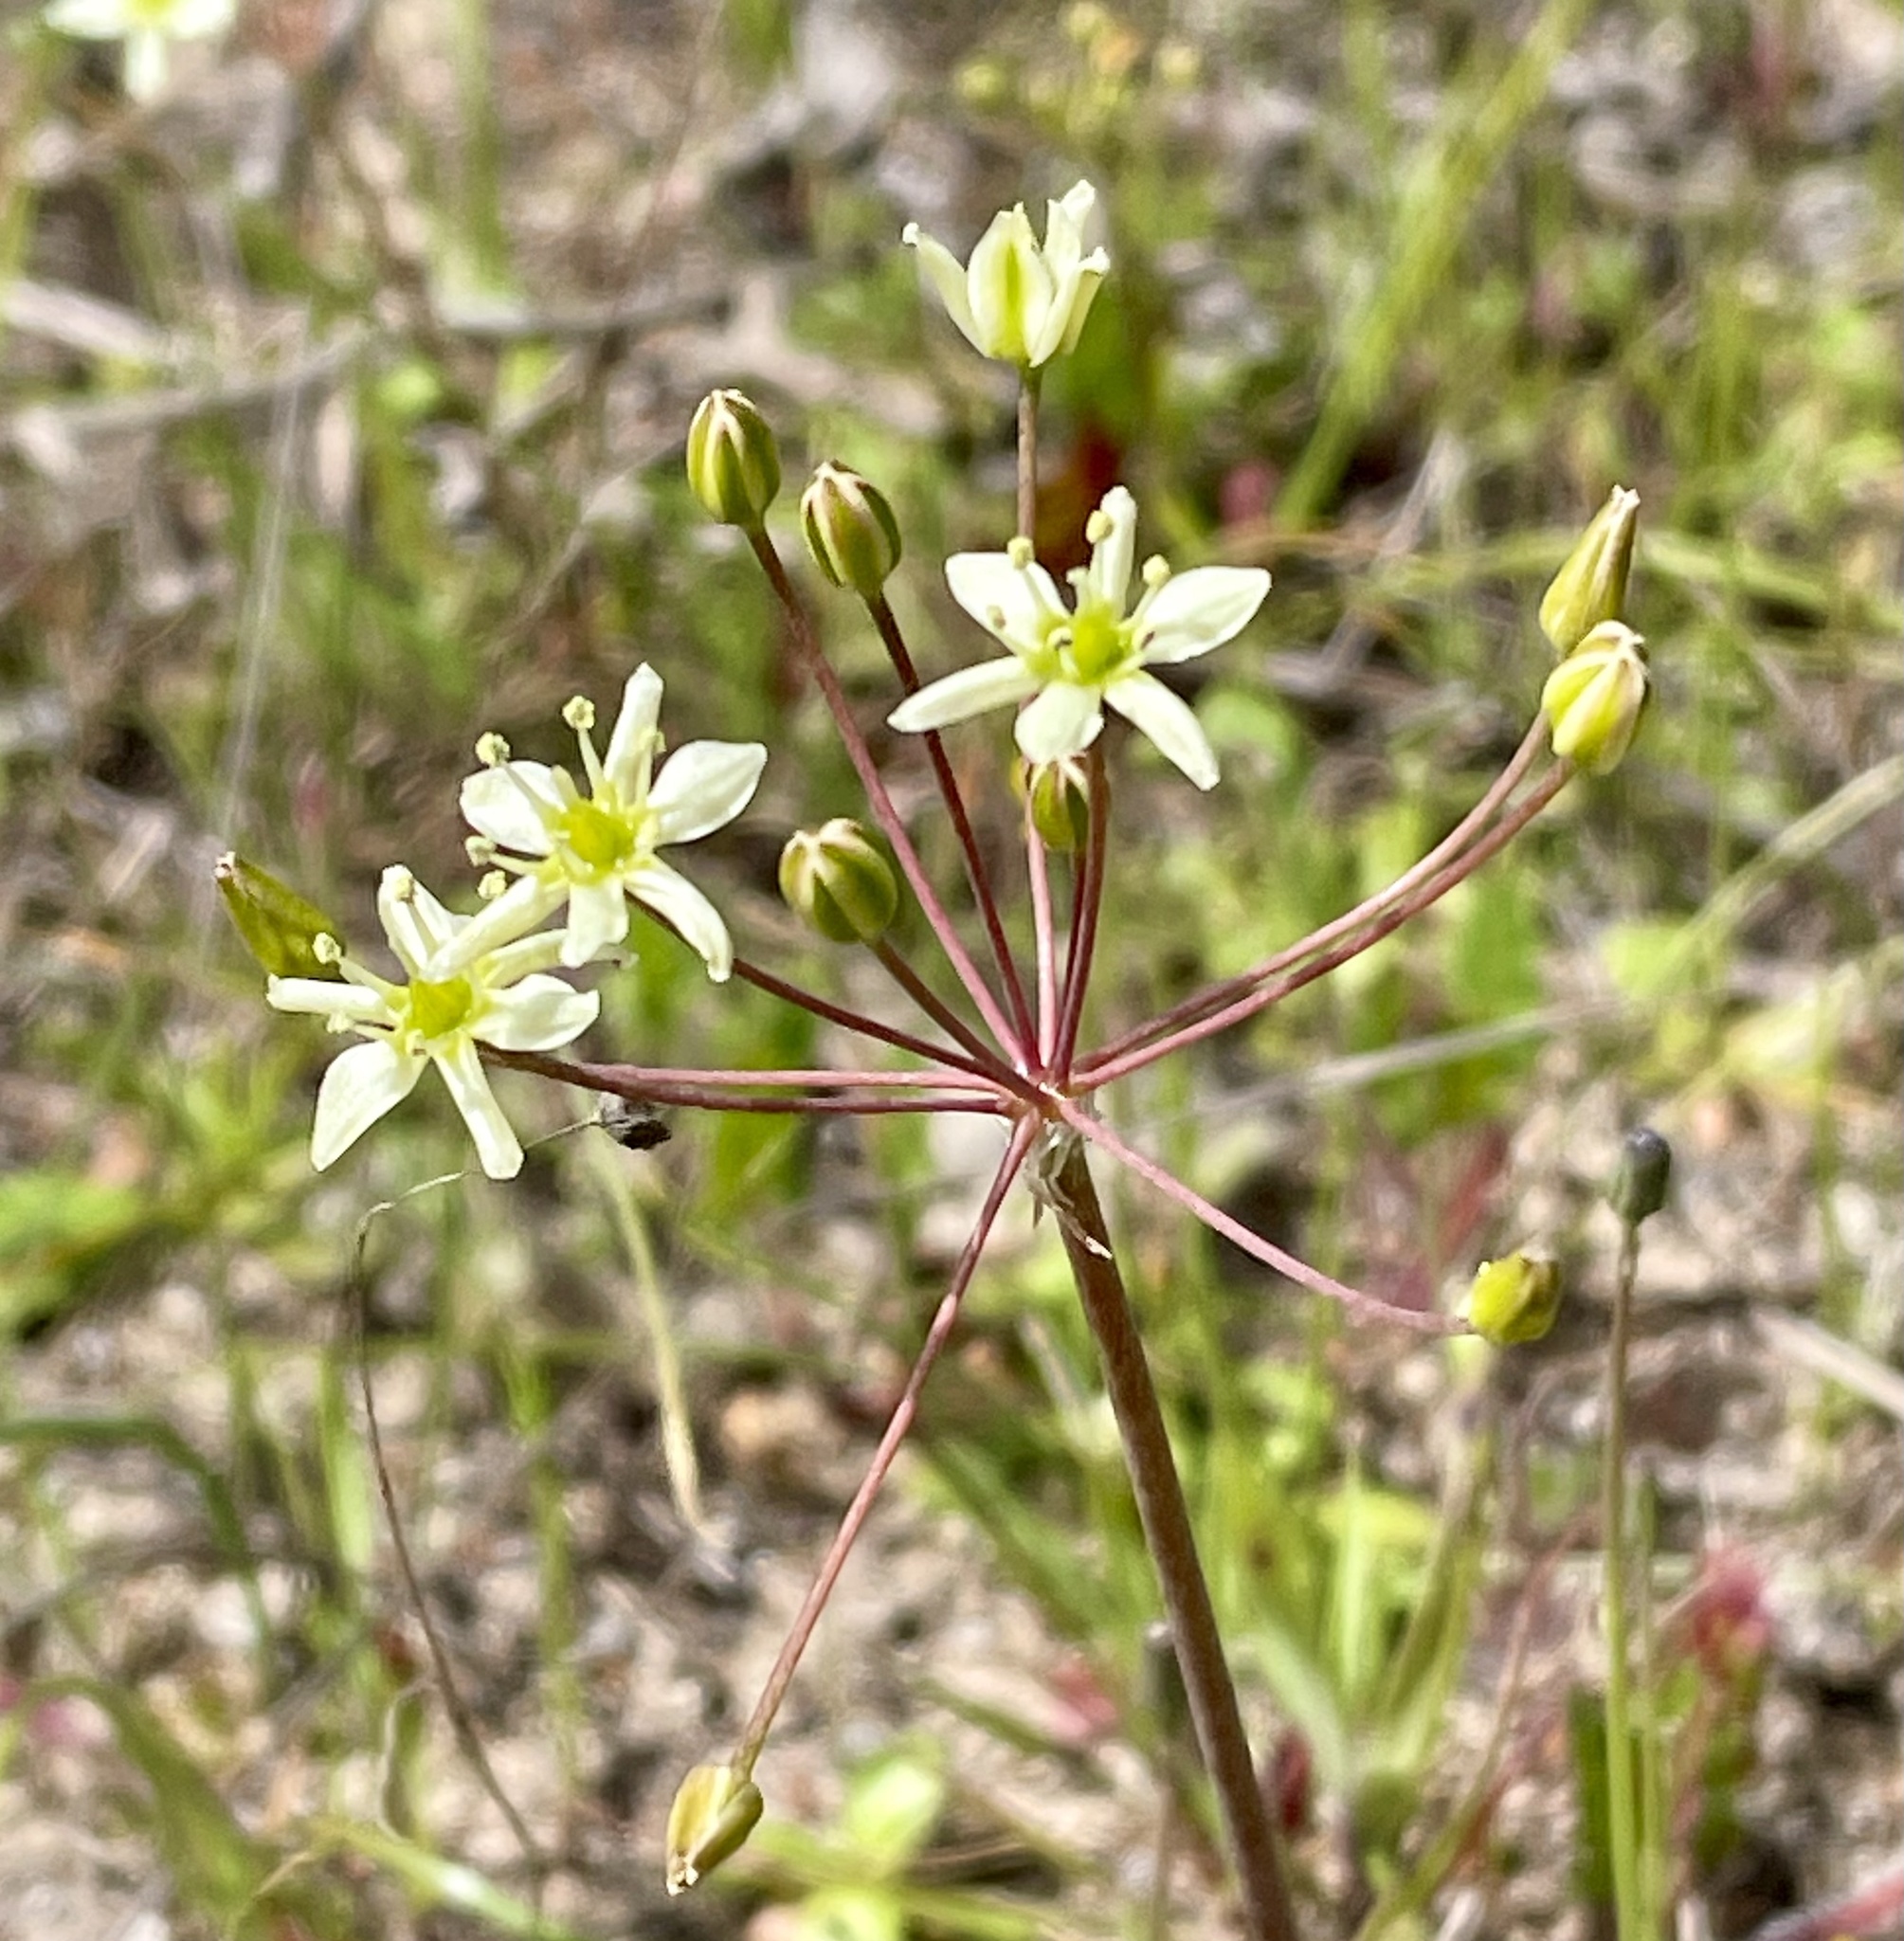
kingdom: Plantae
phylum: Tracheophyta
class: Liliopsida
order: Asparagales
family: Asparagaceae
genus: Muilla
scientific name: Muilla maritima
